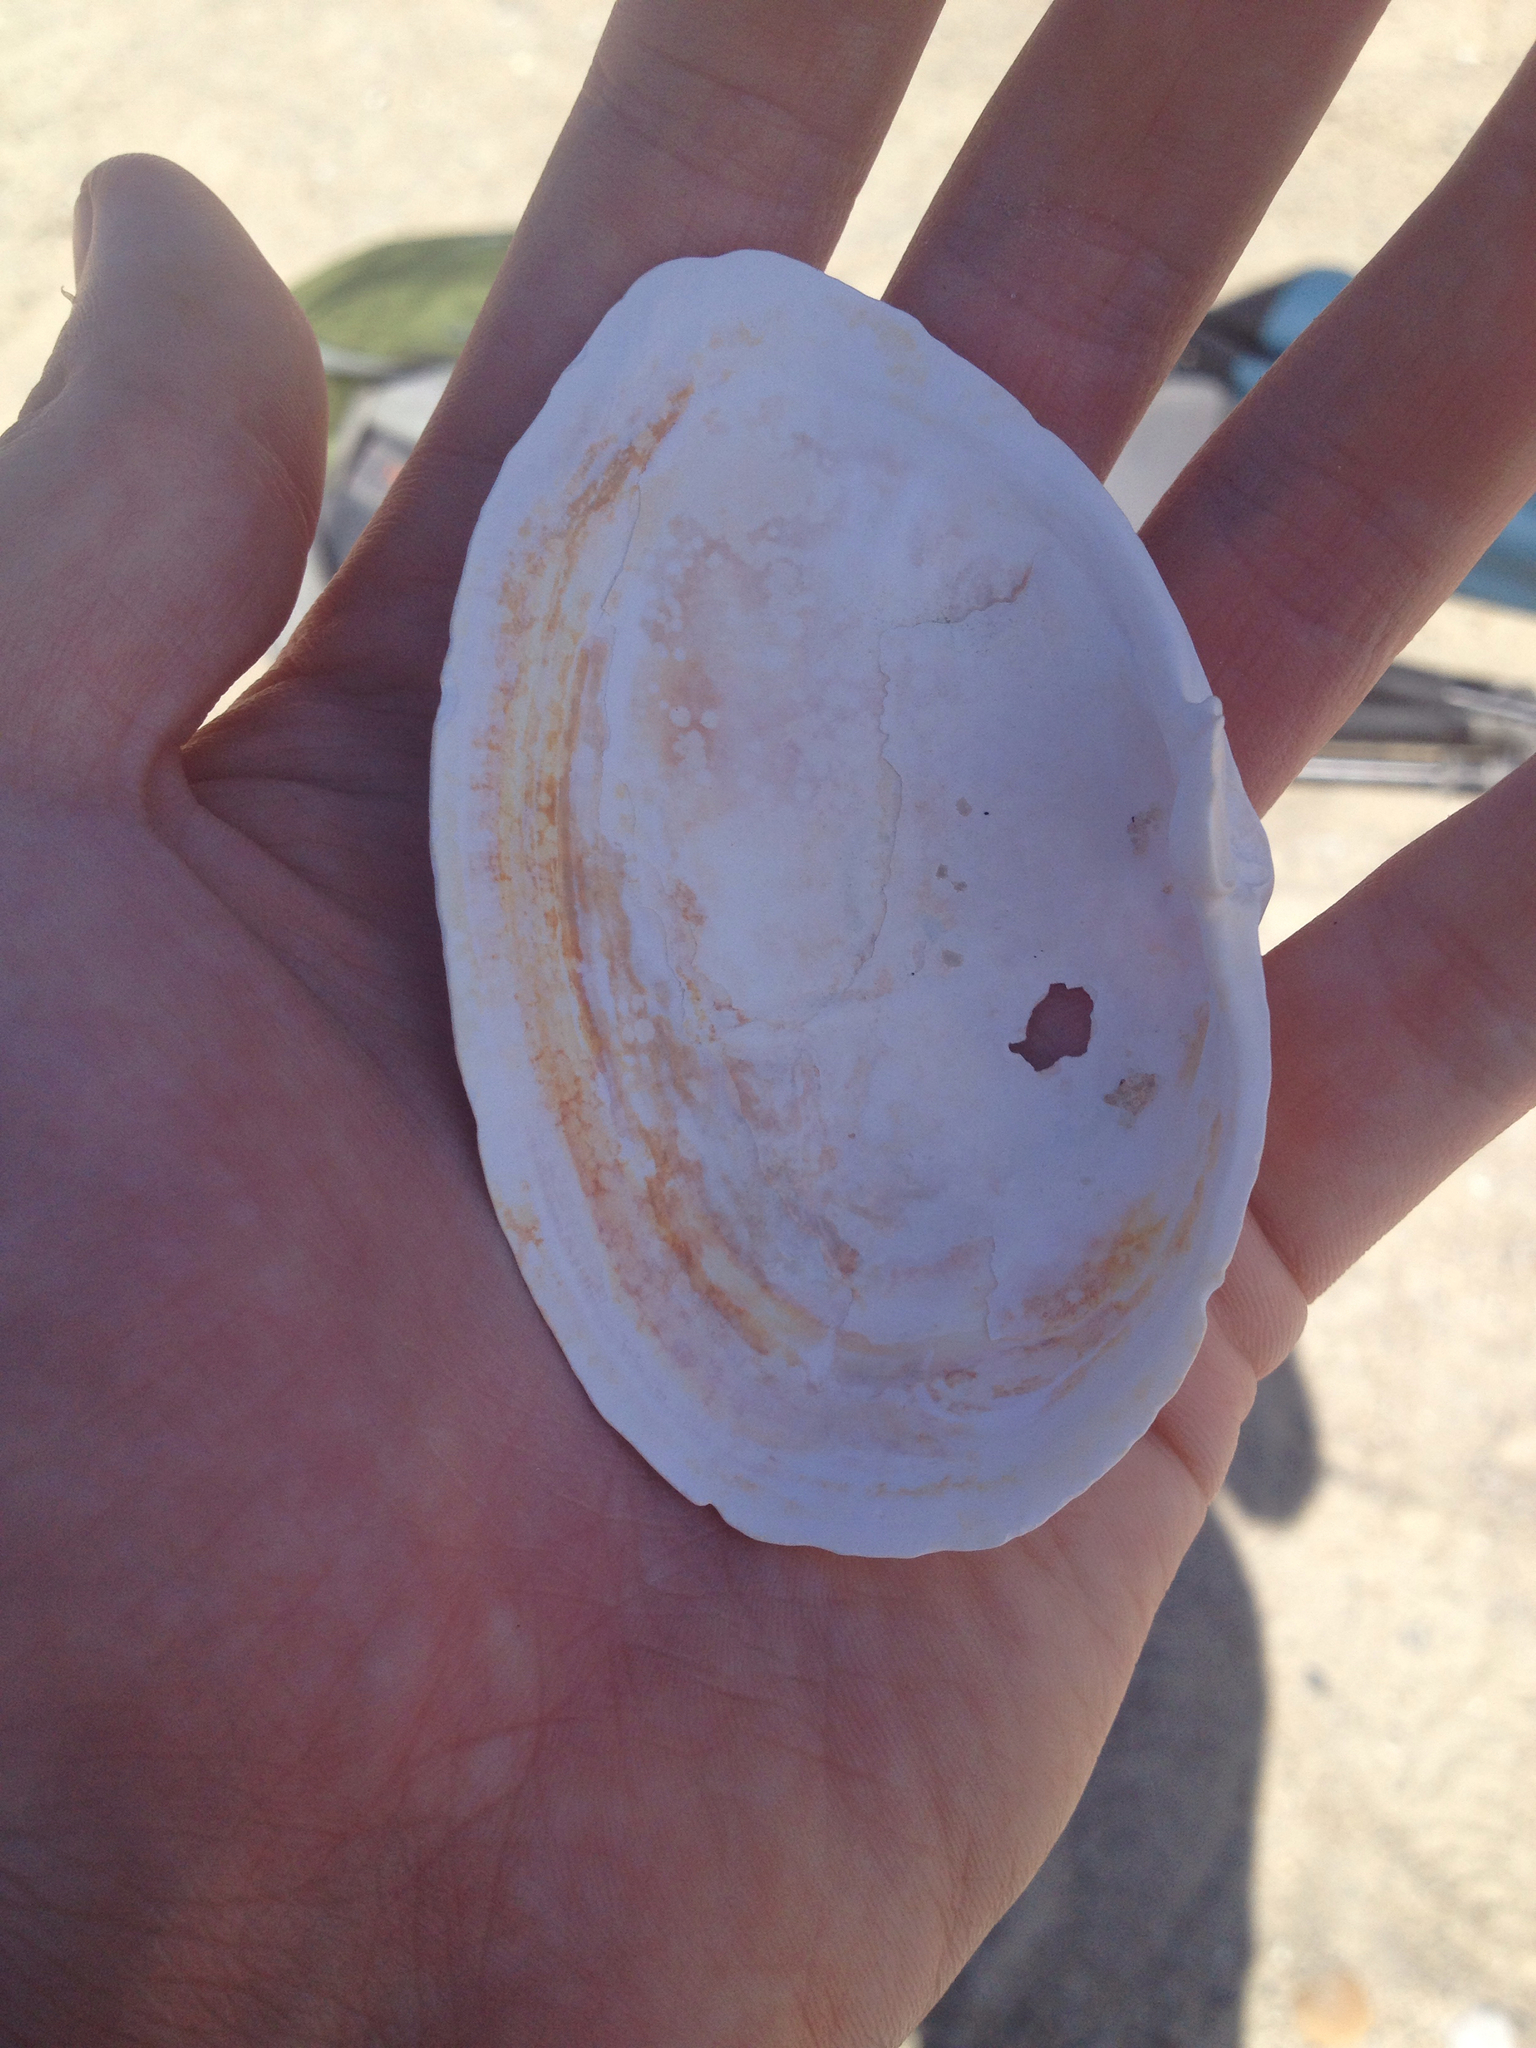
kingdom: Animalia
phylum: Mollusca
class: Bivalvia
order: Myida
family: Myidae
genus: Mya
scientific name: Mya arenaria
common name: Soft-shelled clam
